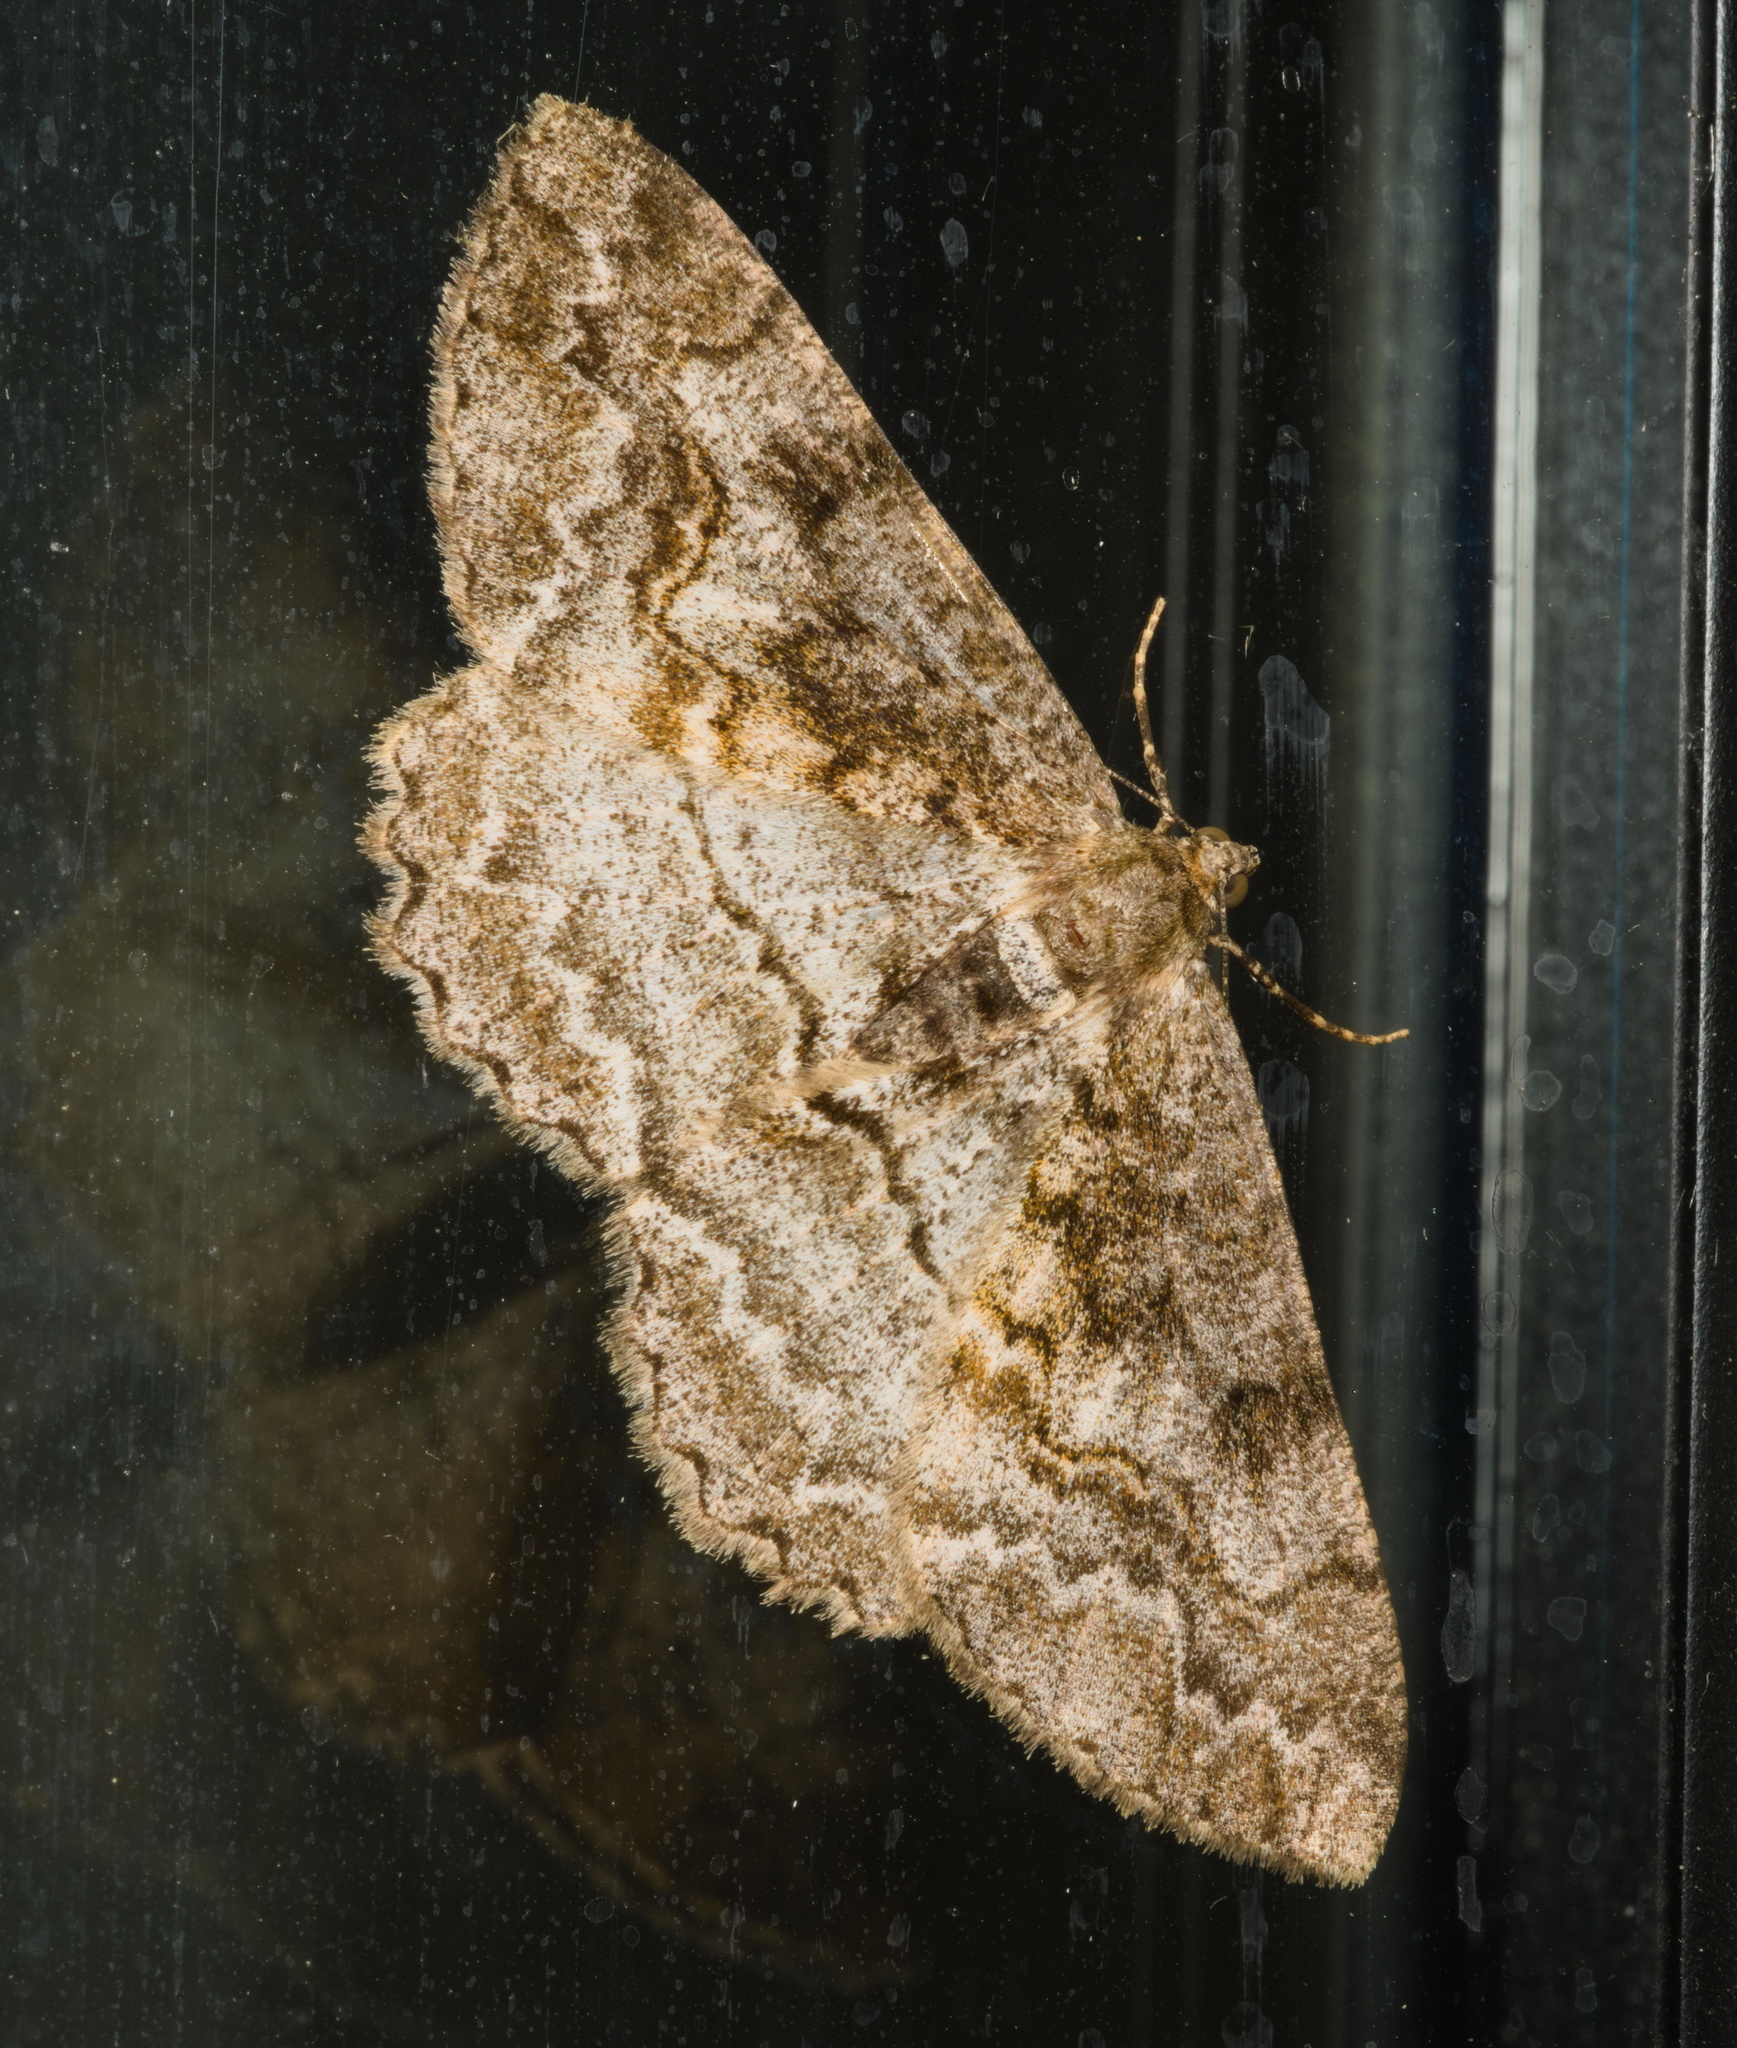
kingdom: Animalia
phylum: Arthropoda
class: Insecta
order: Lepidoptera
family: Geometridae
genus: Alcis
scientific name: Alcis repandata
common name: Mottled beauty
